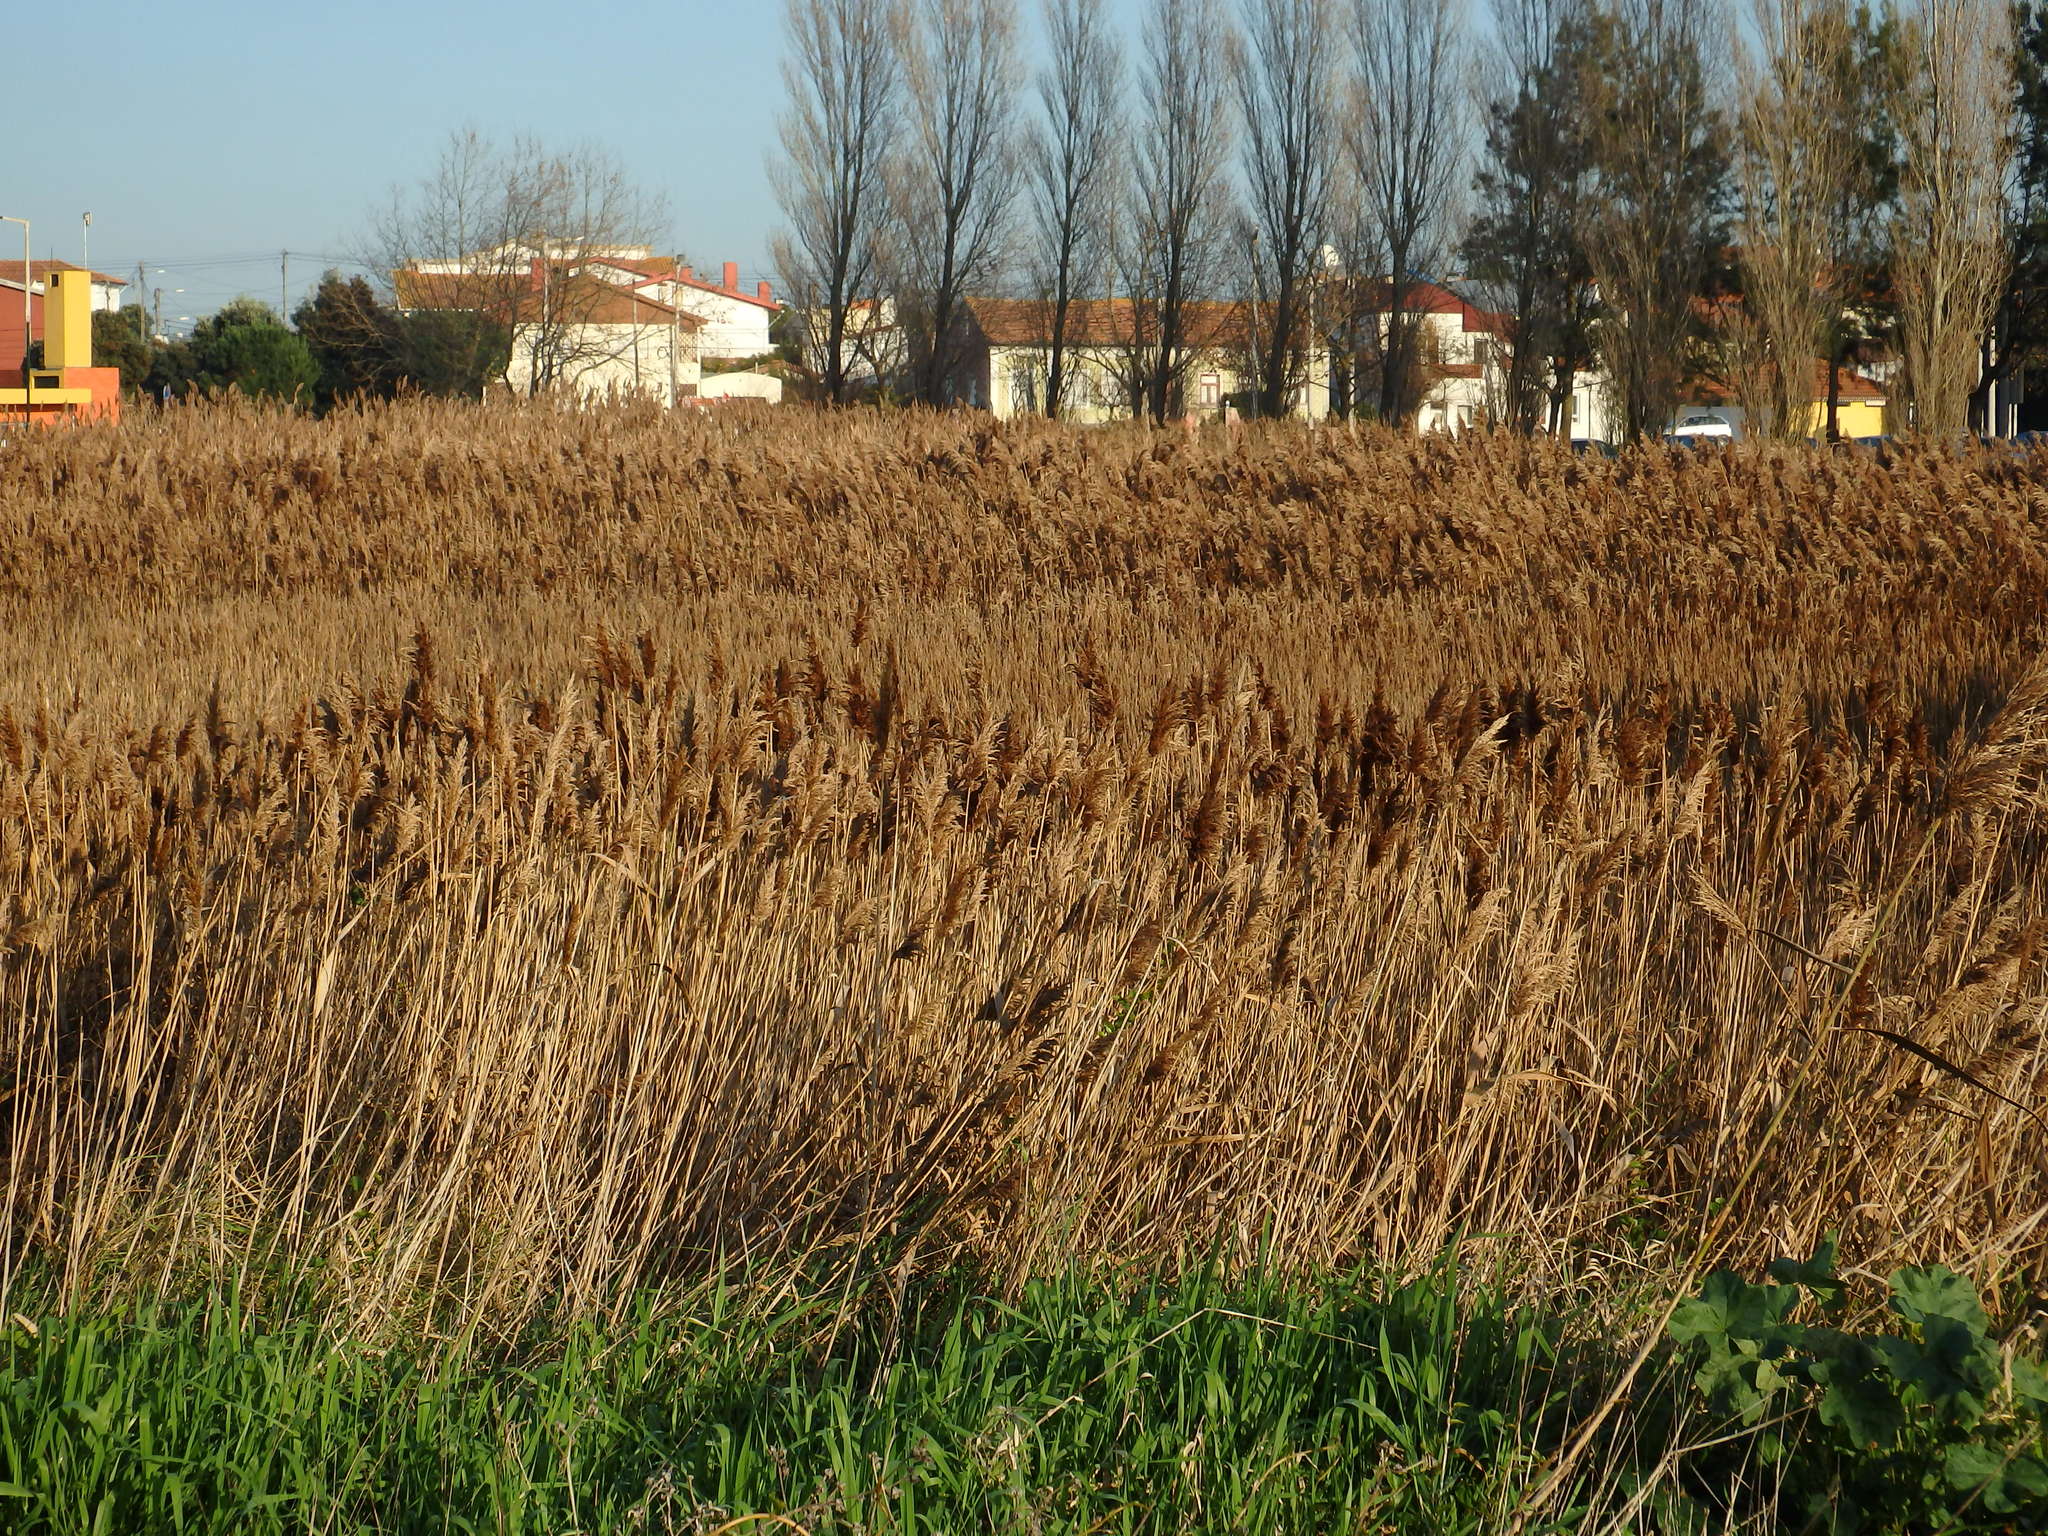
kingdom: Plantae
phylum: Tracheophyta
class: Liliopsida
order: Poales
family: Poaceae
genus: Phragmites
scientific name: Phragmites australis
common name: Common reed
